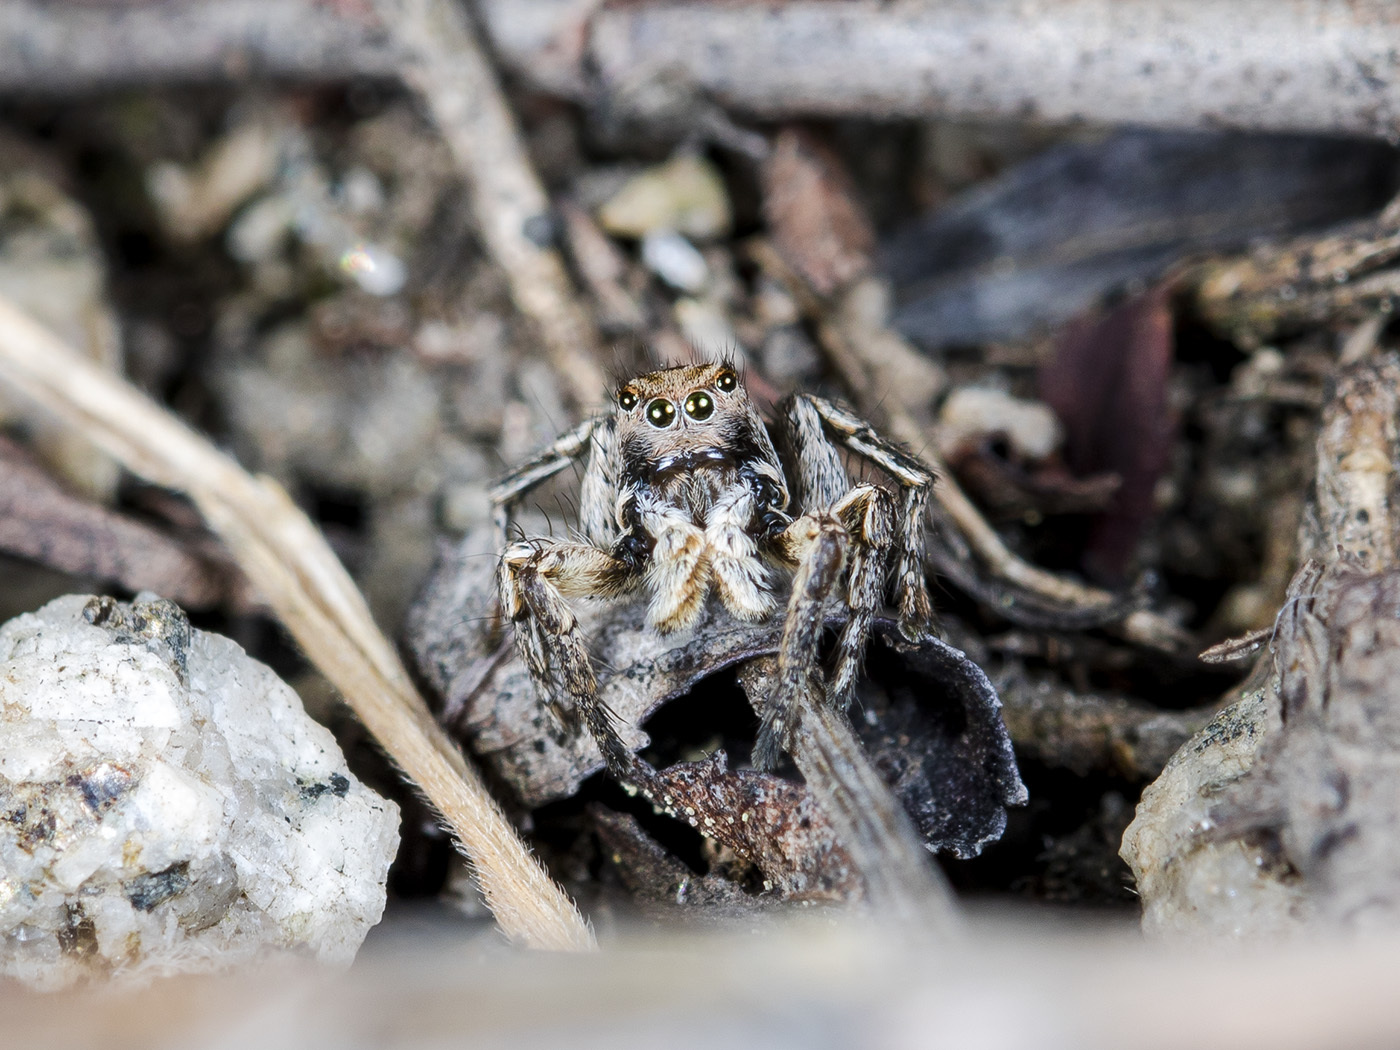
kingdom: Animalia
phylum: Arthropoda
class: Arachnida
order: Araneae
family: Salticidae
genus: Aelurillus
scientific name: Aelurillus v-insignitus
